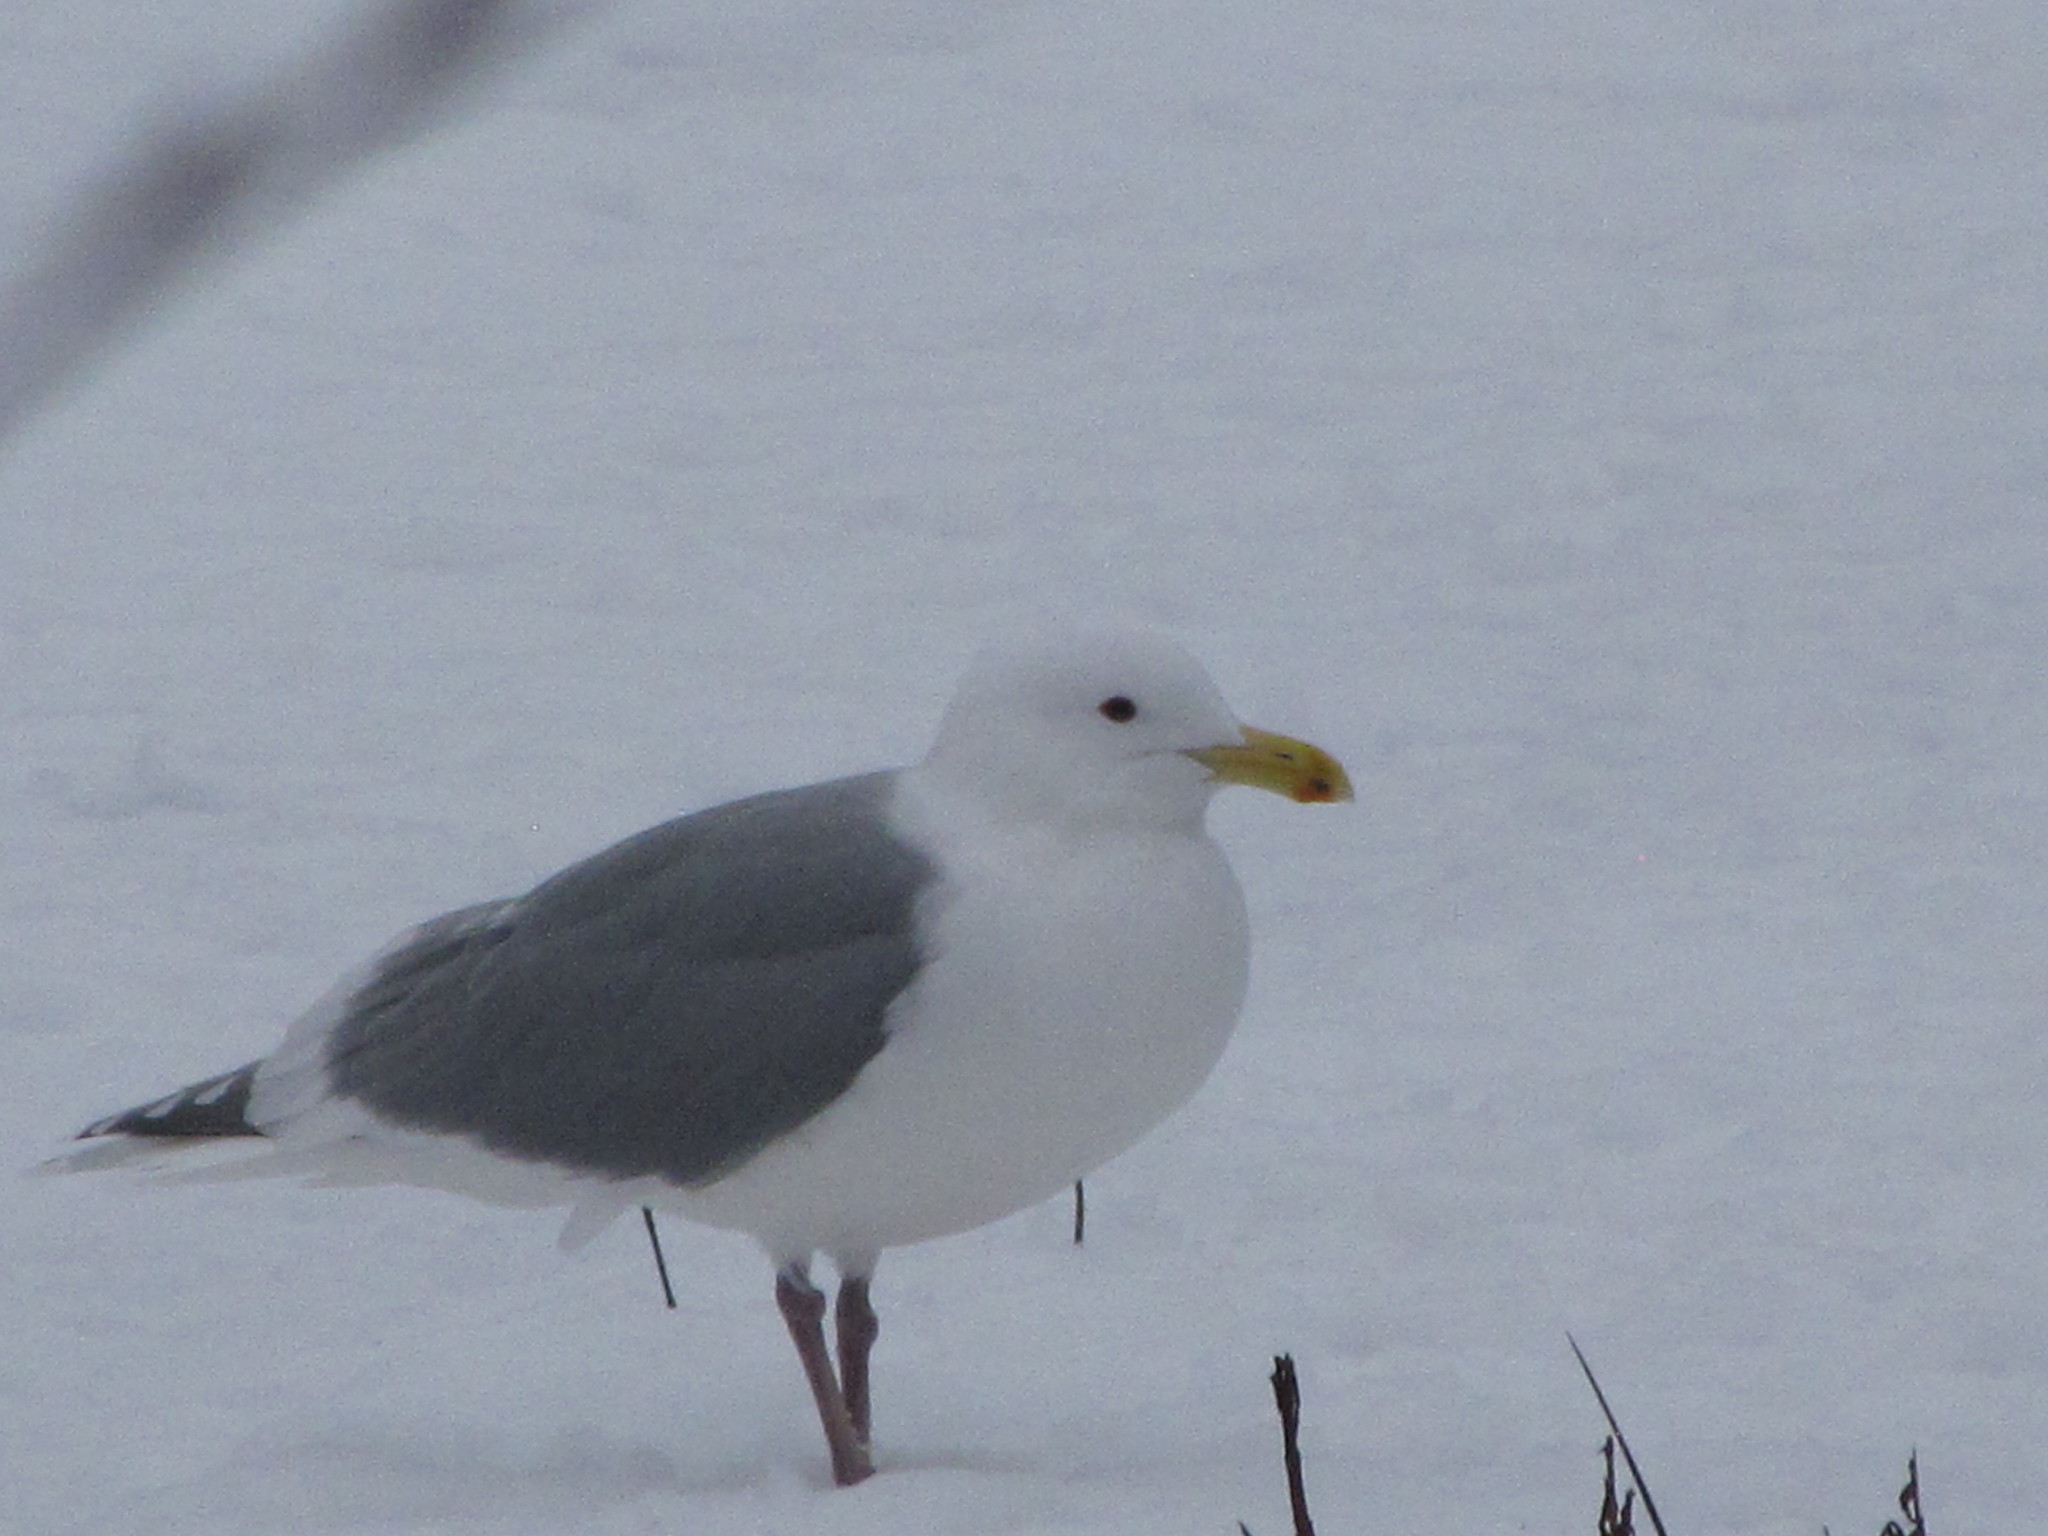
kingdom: Animalia
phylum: Chordata
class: Aves
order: Charadriiformes
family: Laridae
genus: Larus
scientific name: Larus
